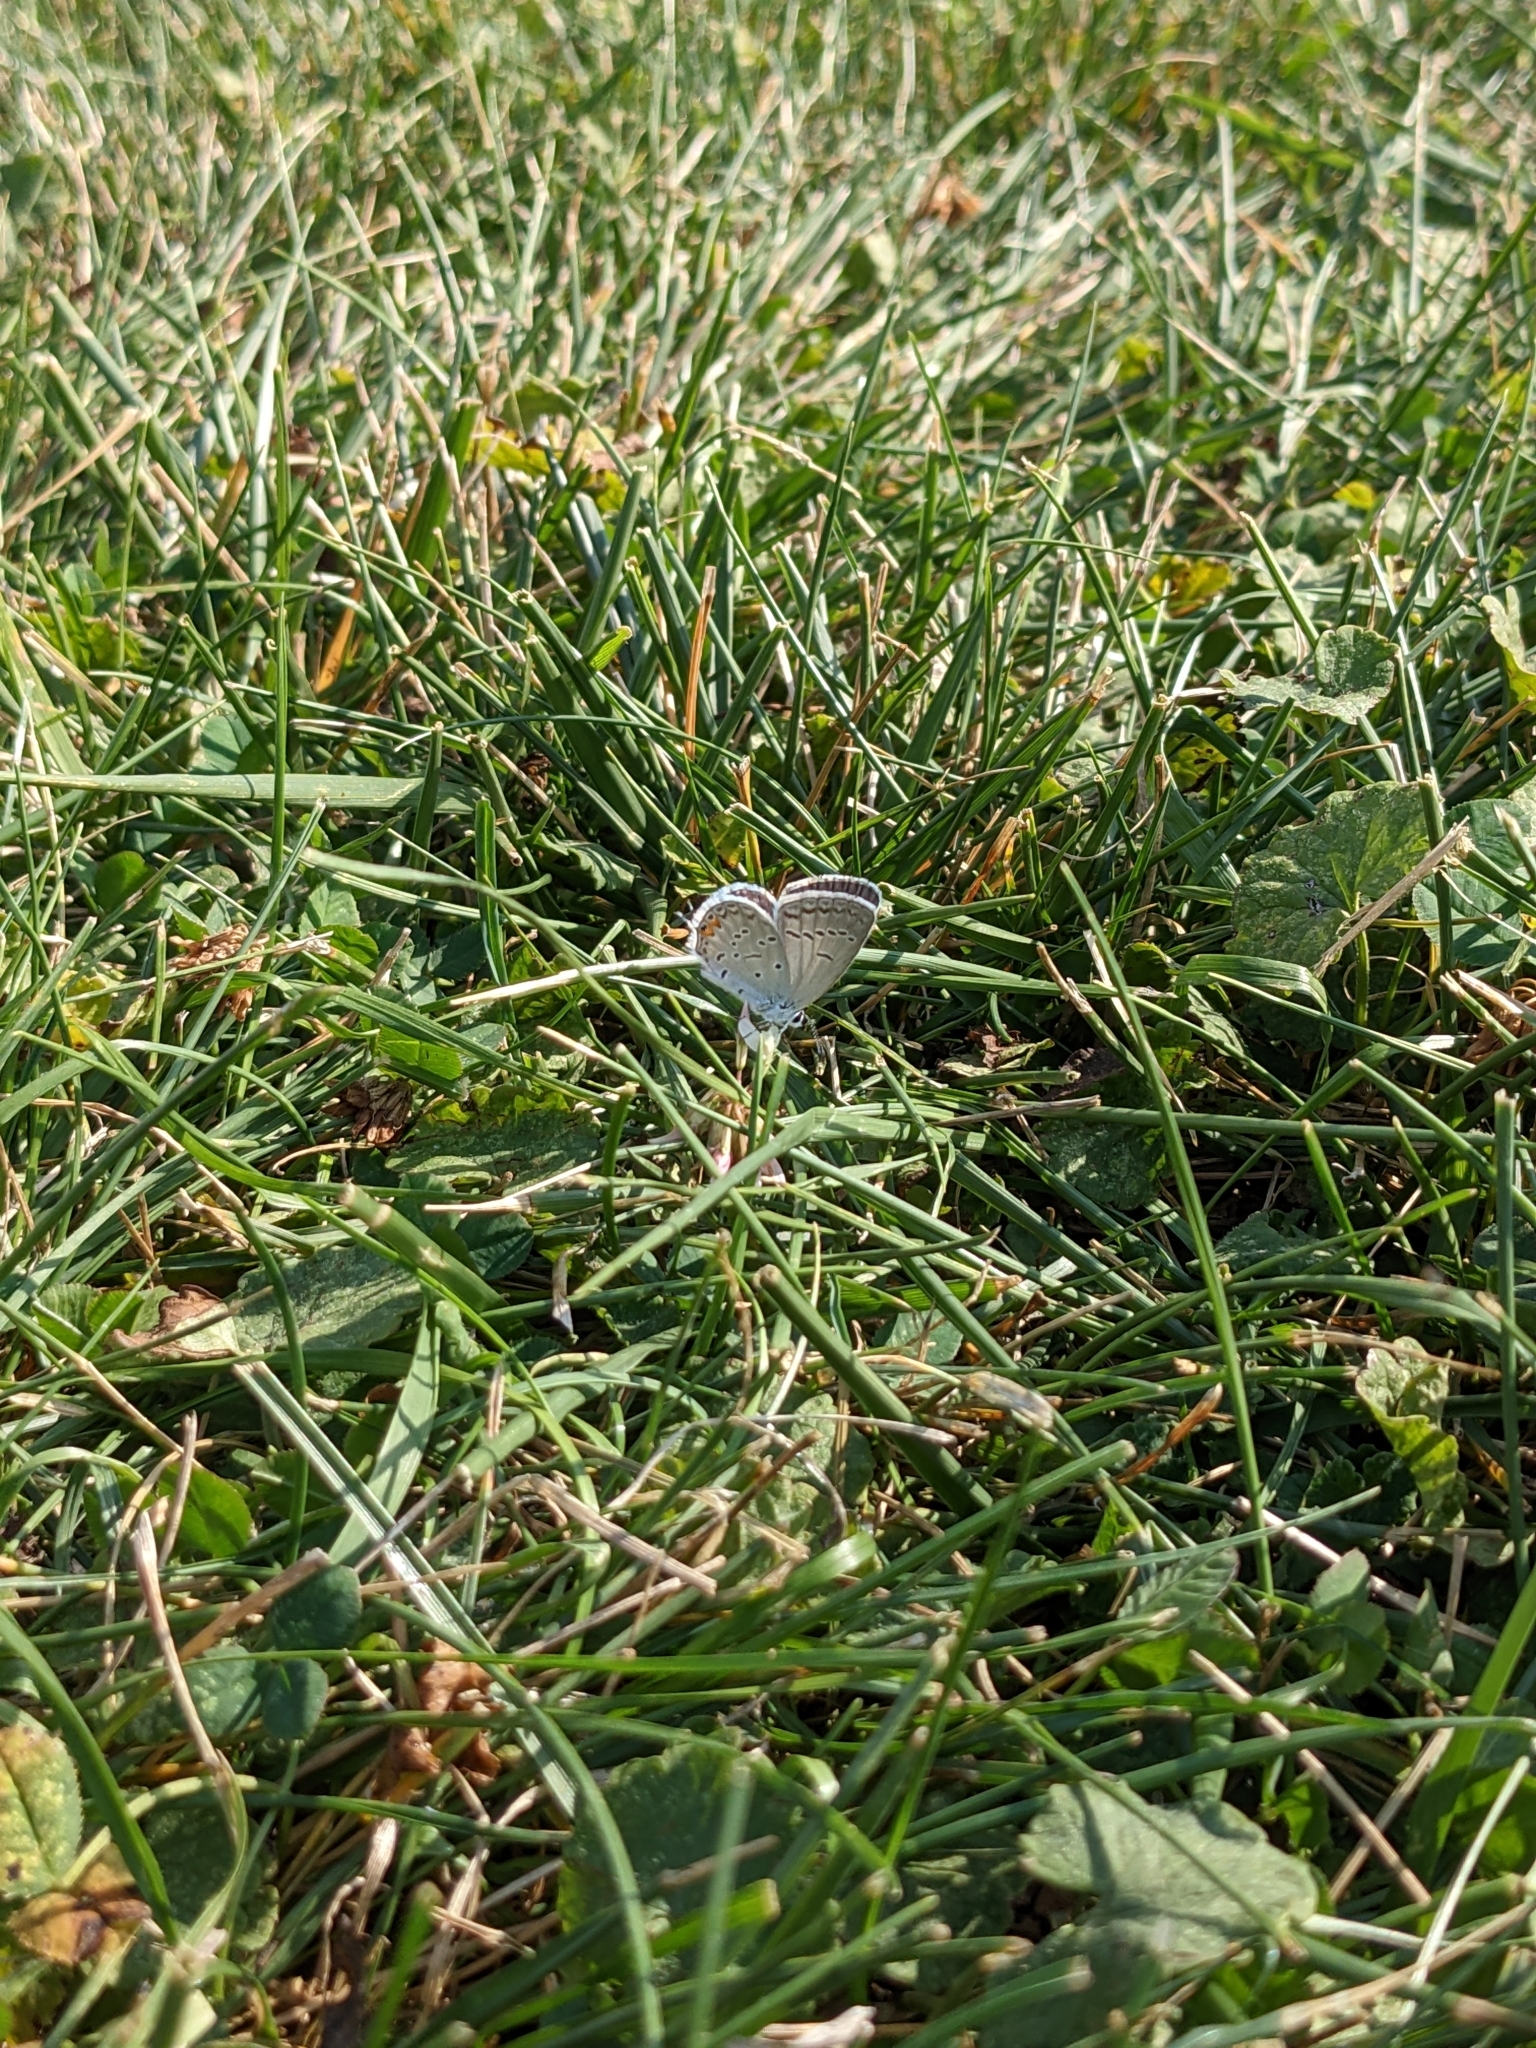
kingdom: Animalia
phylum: Arthropoda
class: Insecta
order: Lepidoptera
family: Lycaenidae
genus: Elkalyce
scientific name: Elkalyce comyntas
